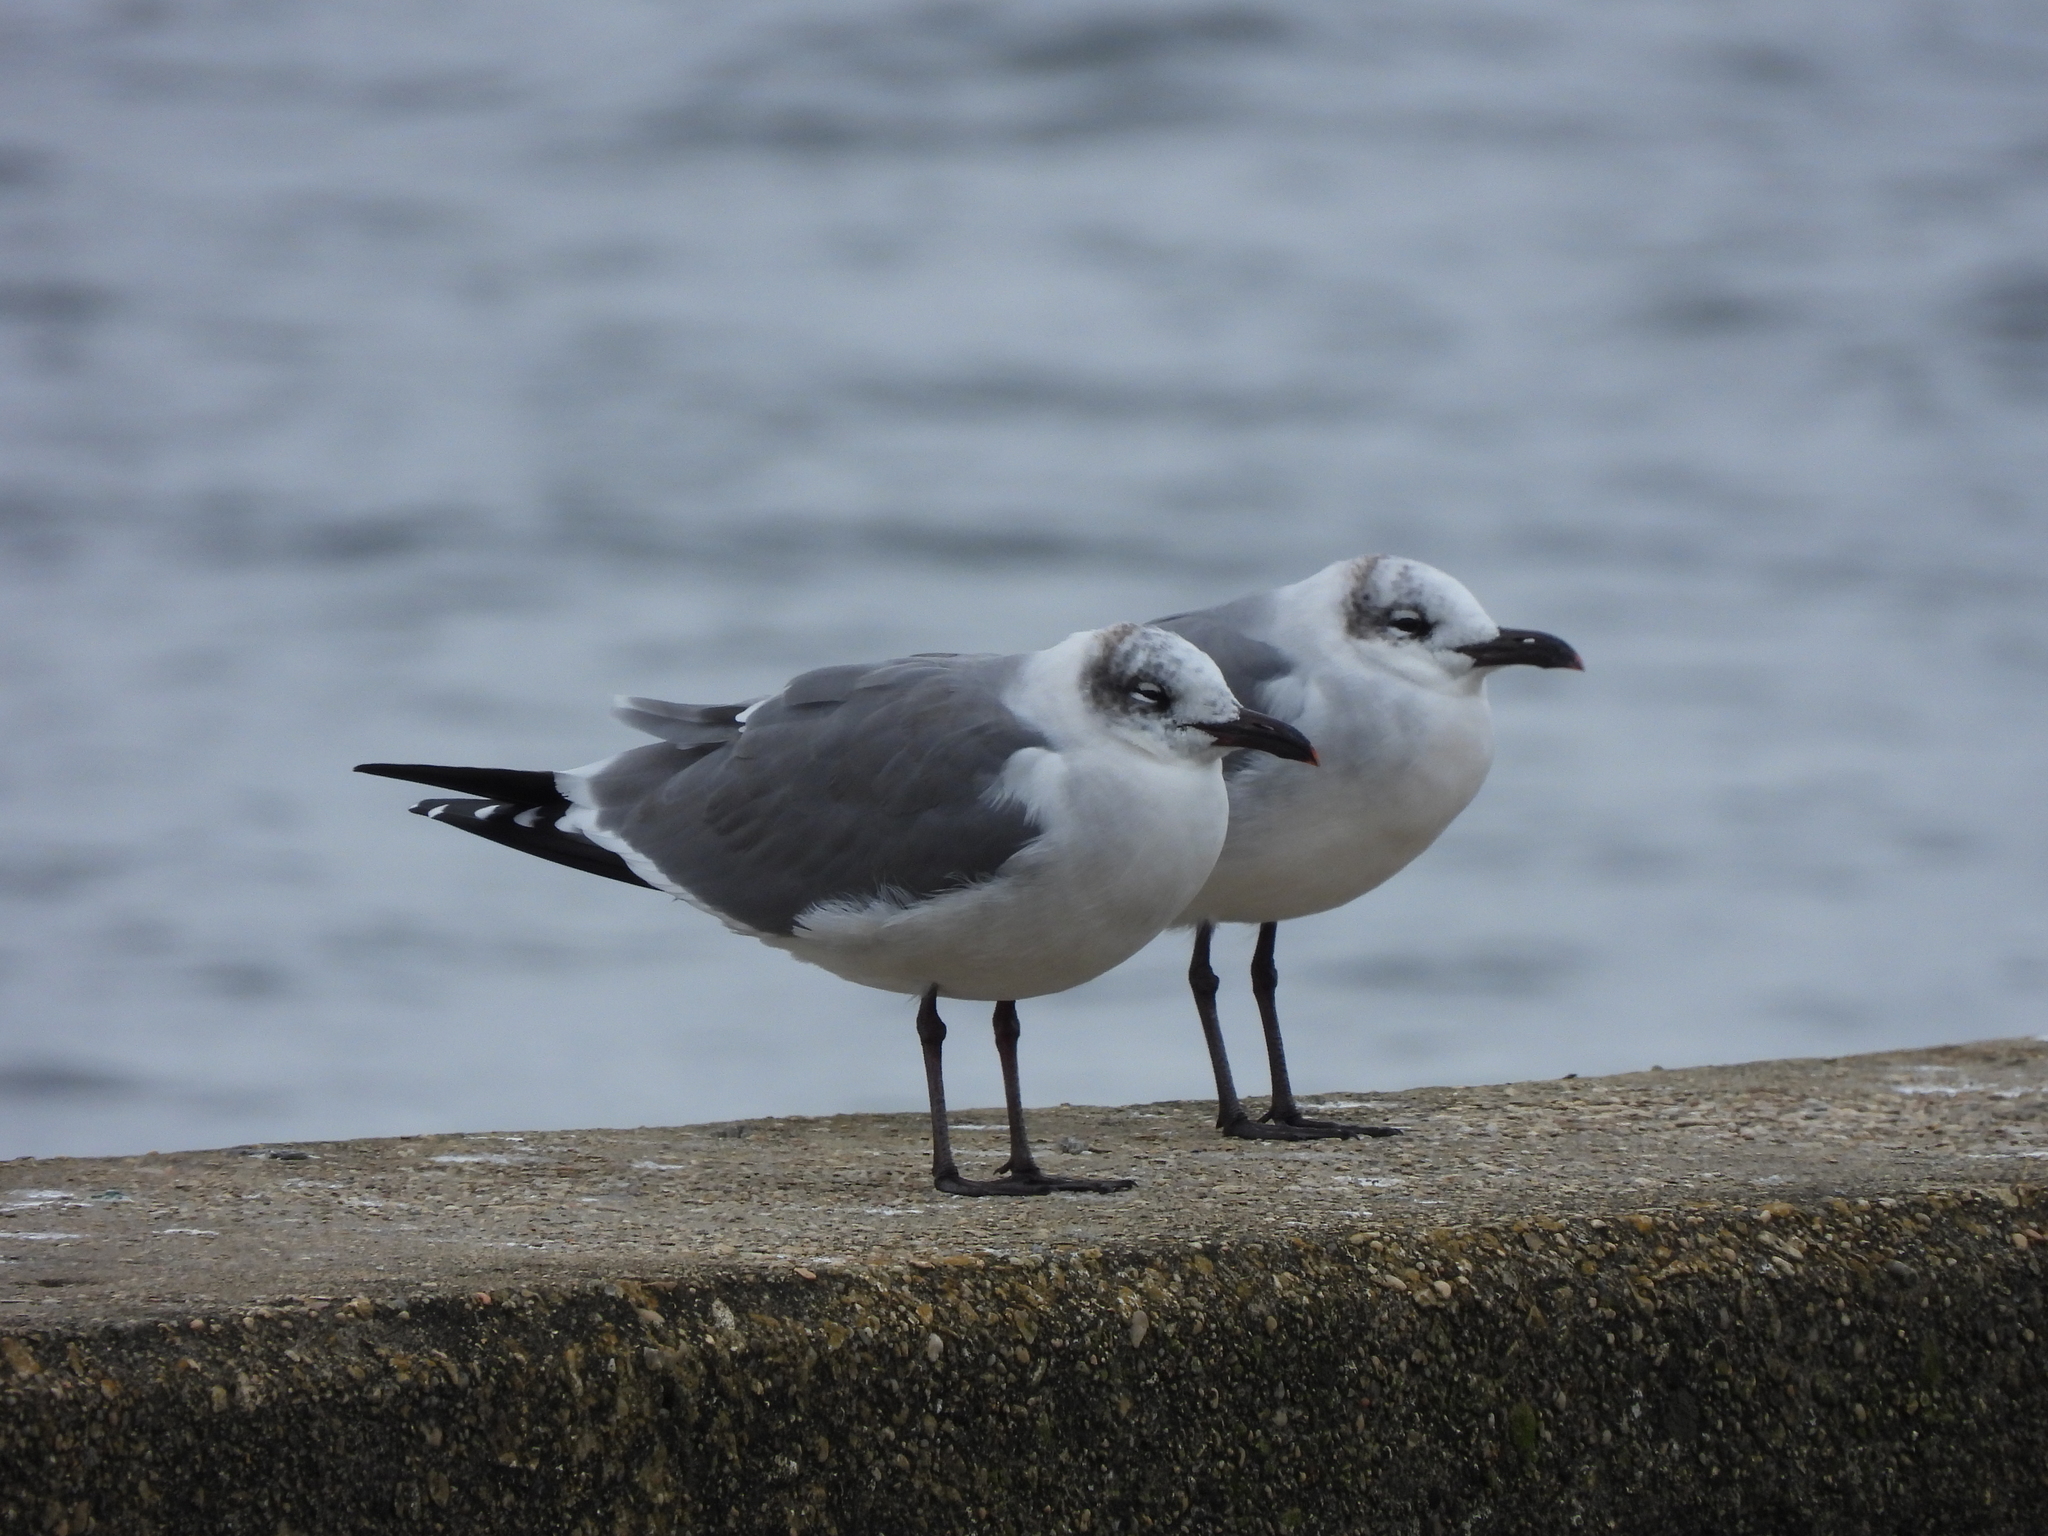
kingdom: Animalia
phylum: Chordata
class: Aves
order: Charadriiformes
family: Laridae
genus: Leucophaeus
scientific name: Leucophaeus atricilla
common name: Laughing gull
